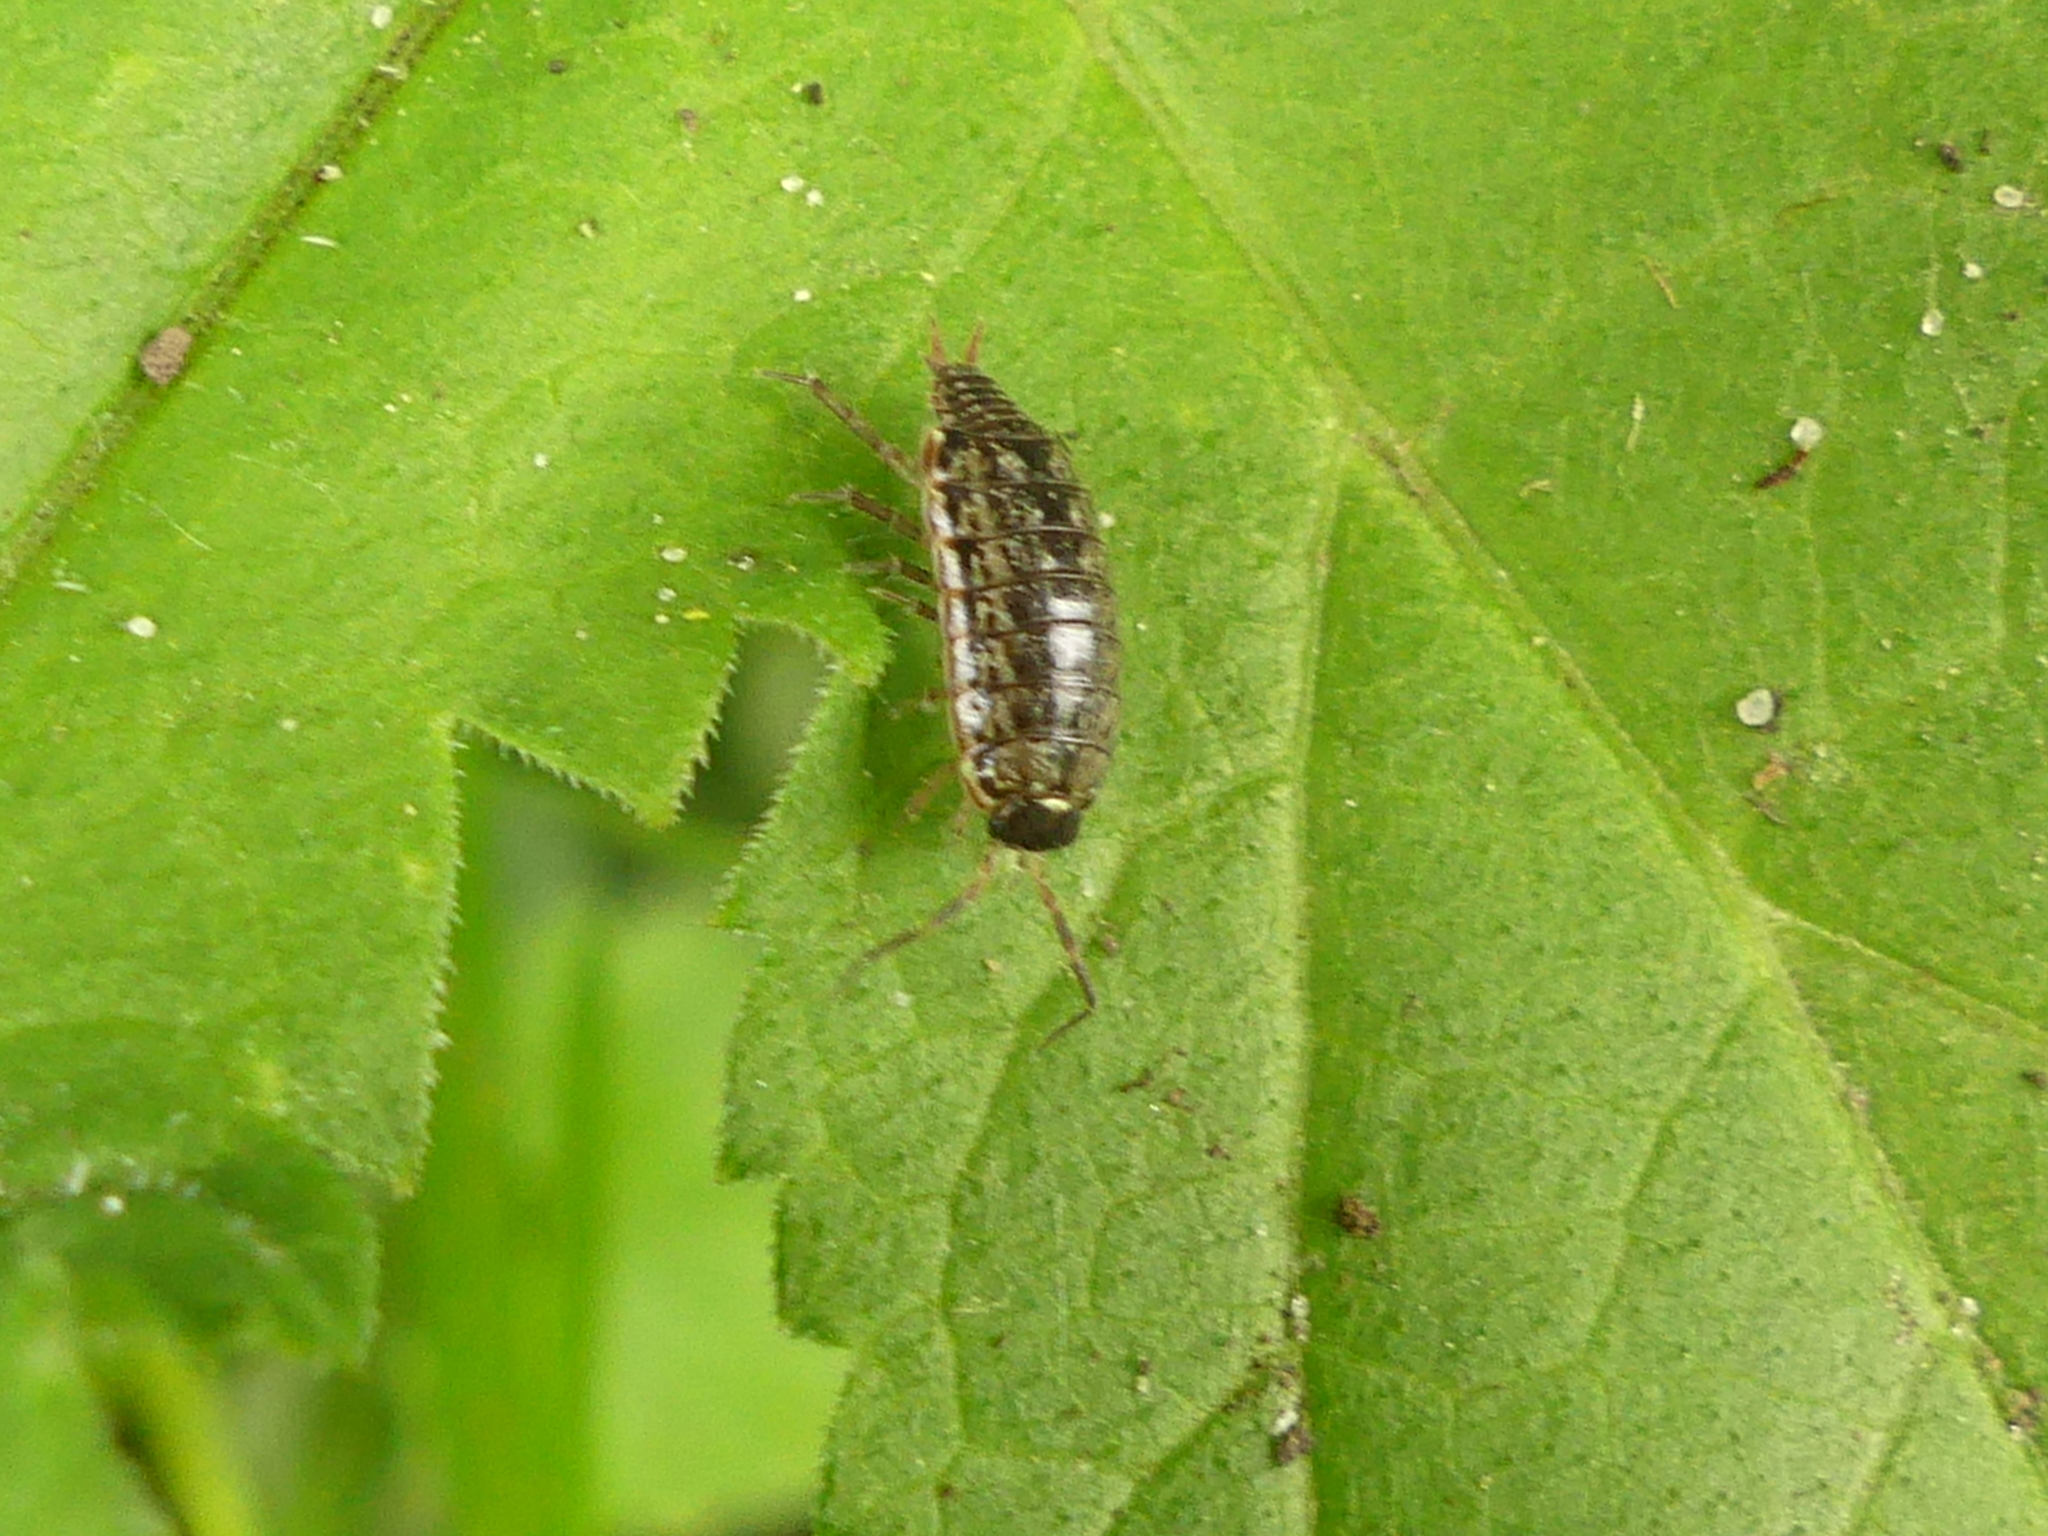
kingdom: Animalia
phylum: Arthropoda
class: Malacostraca
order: Isopoda
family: Philosciidae
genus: Philoscia
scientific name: Philoscia muscorum
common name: Common striped woodlouse
